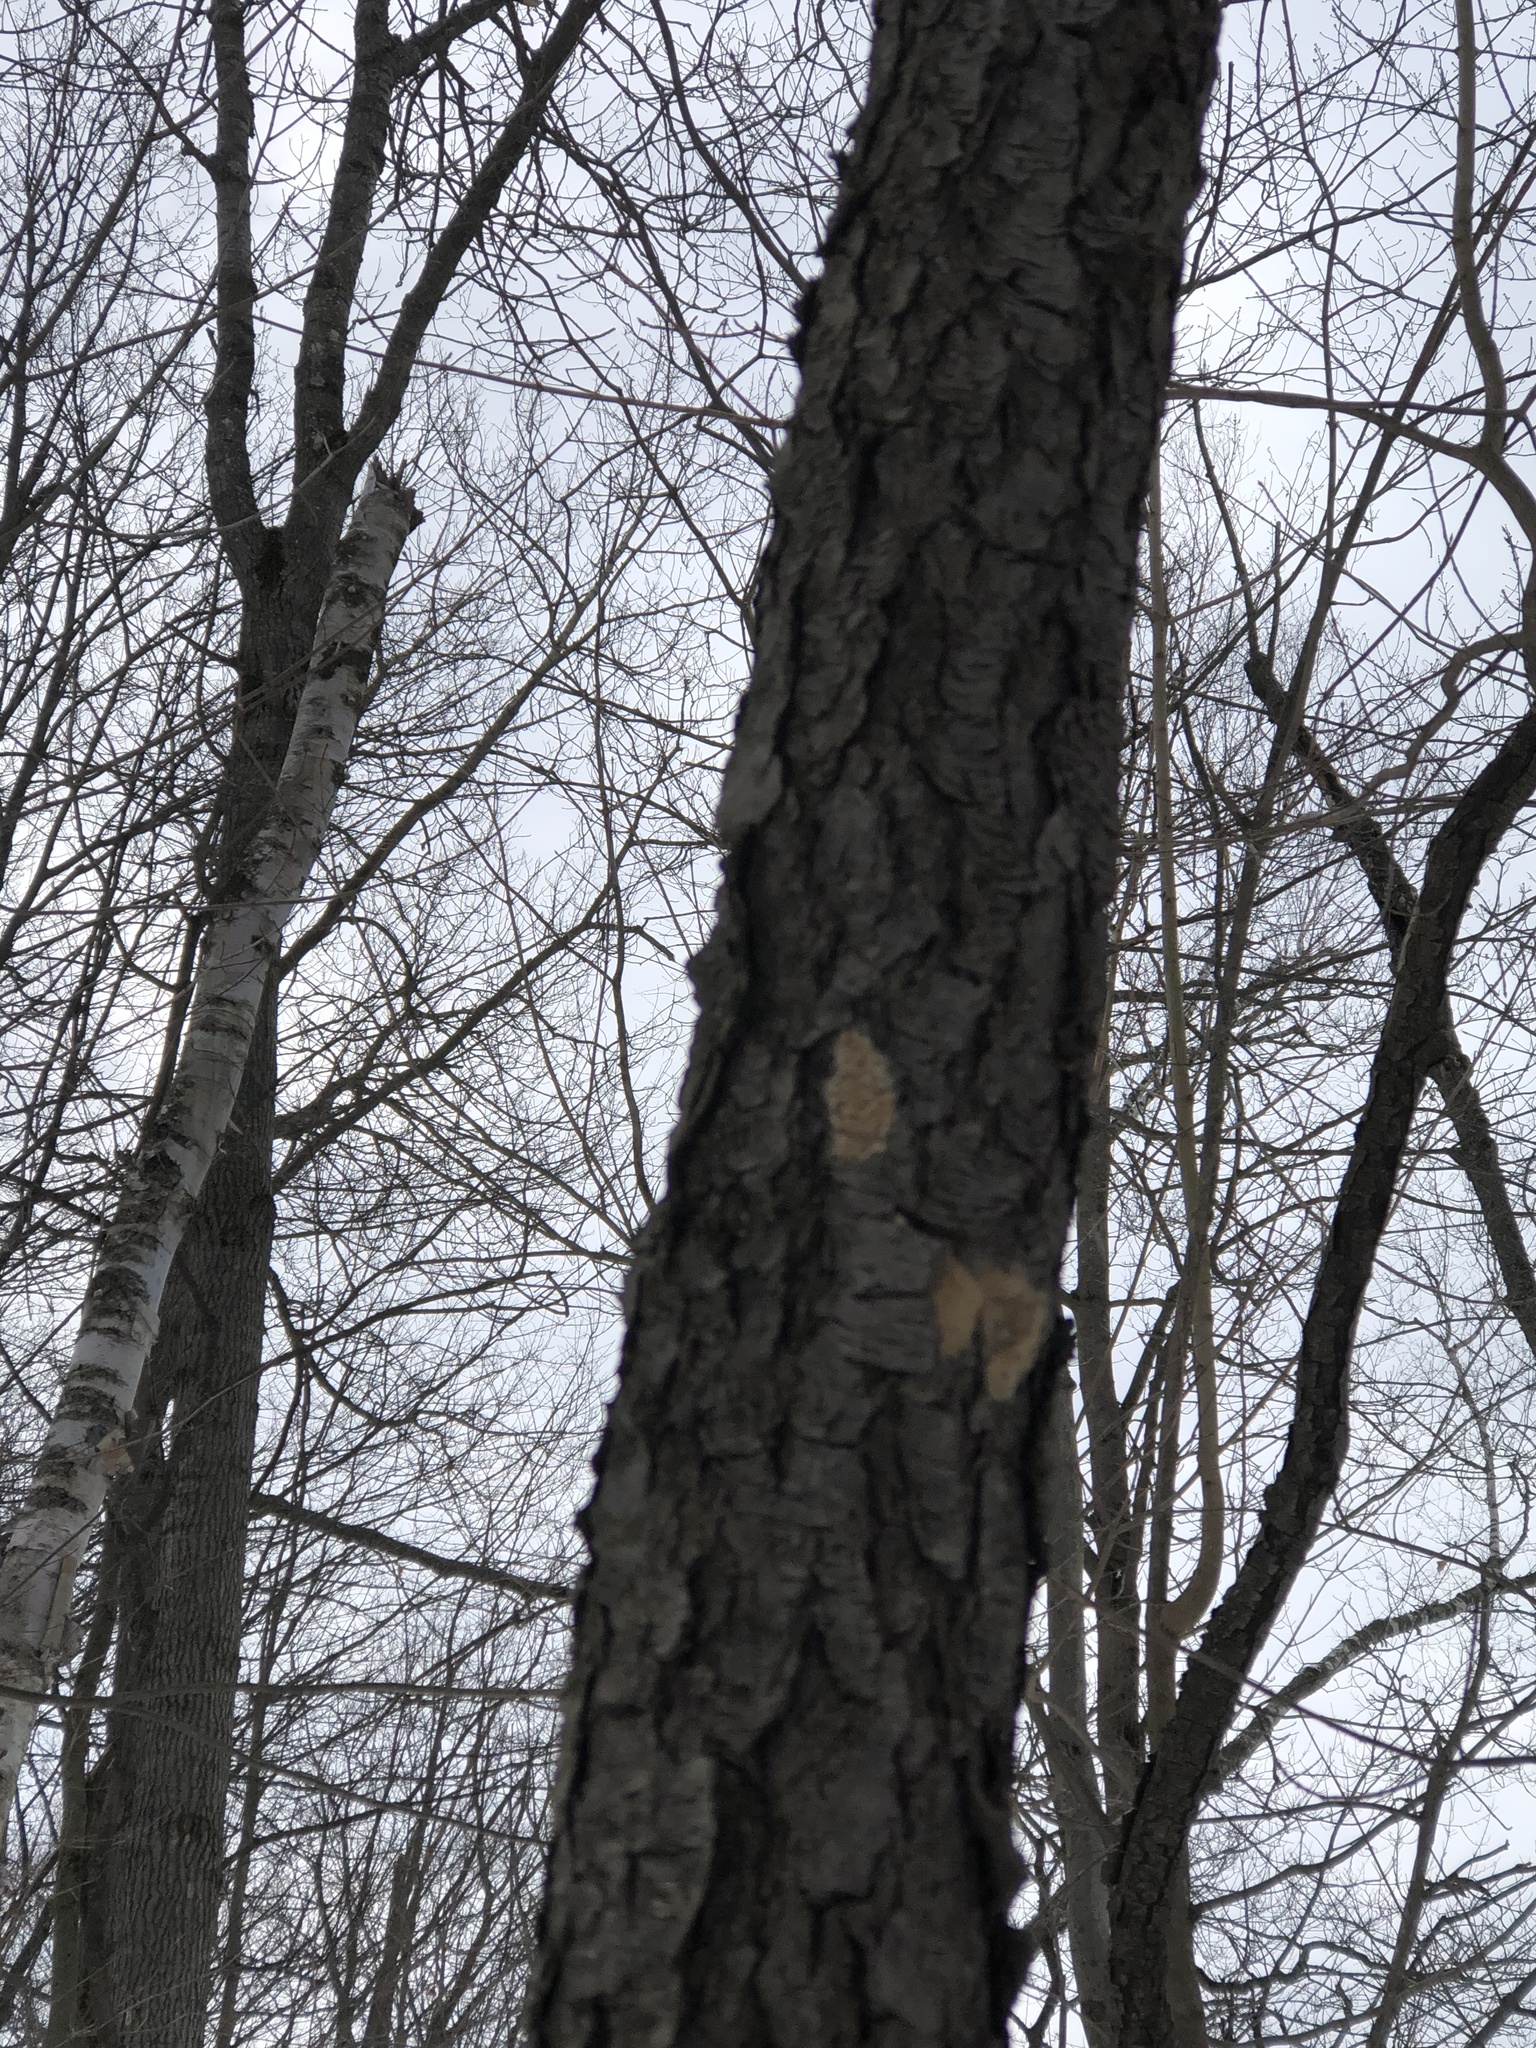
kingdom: Animalia
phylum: Arthropoda
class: Insecta
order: Lepidoptera
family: Erebidae
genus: Lymantria
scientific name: Lymantria dispar
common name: Gypsy moth
